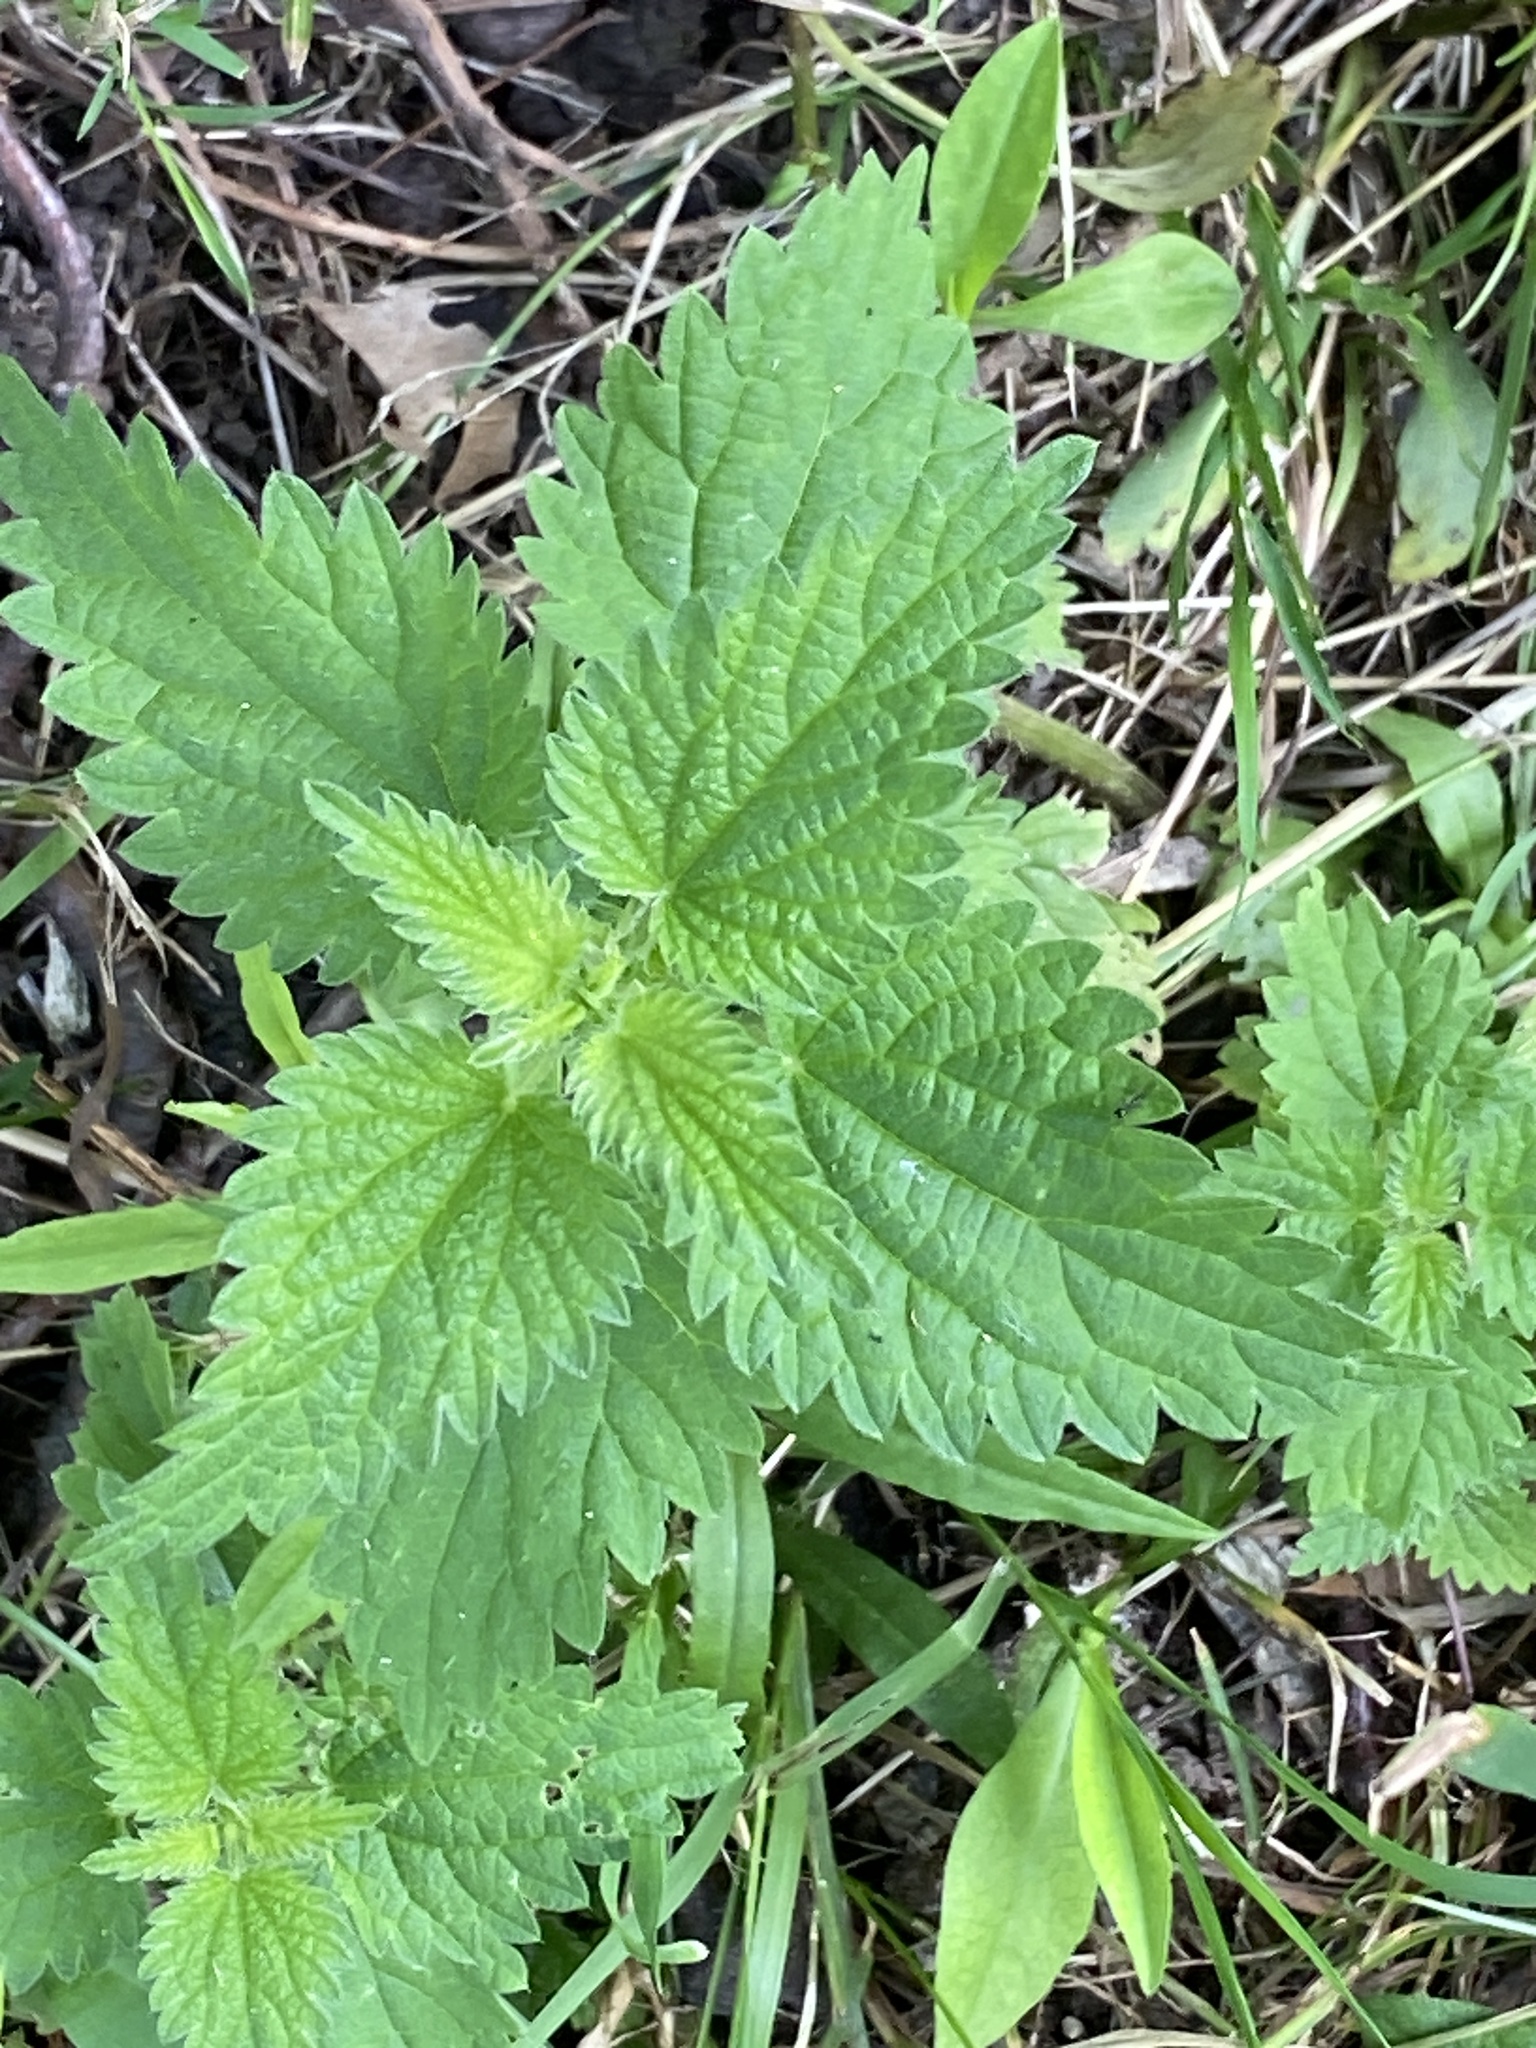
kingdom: Plantae
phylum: Tracheophyta
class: Magnoliopsida
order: Rosales
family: Urticaceae
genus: Urtica
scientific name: Urtica gracilis
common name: Slender stinging nettle
